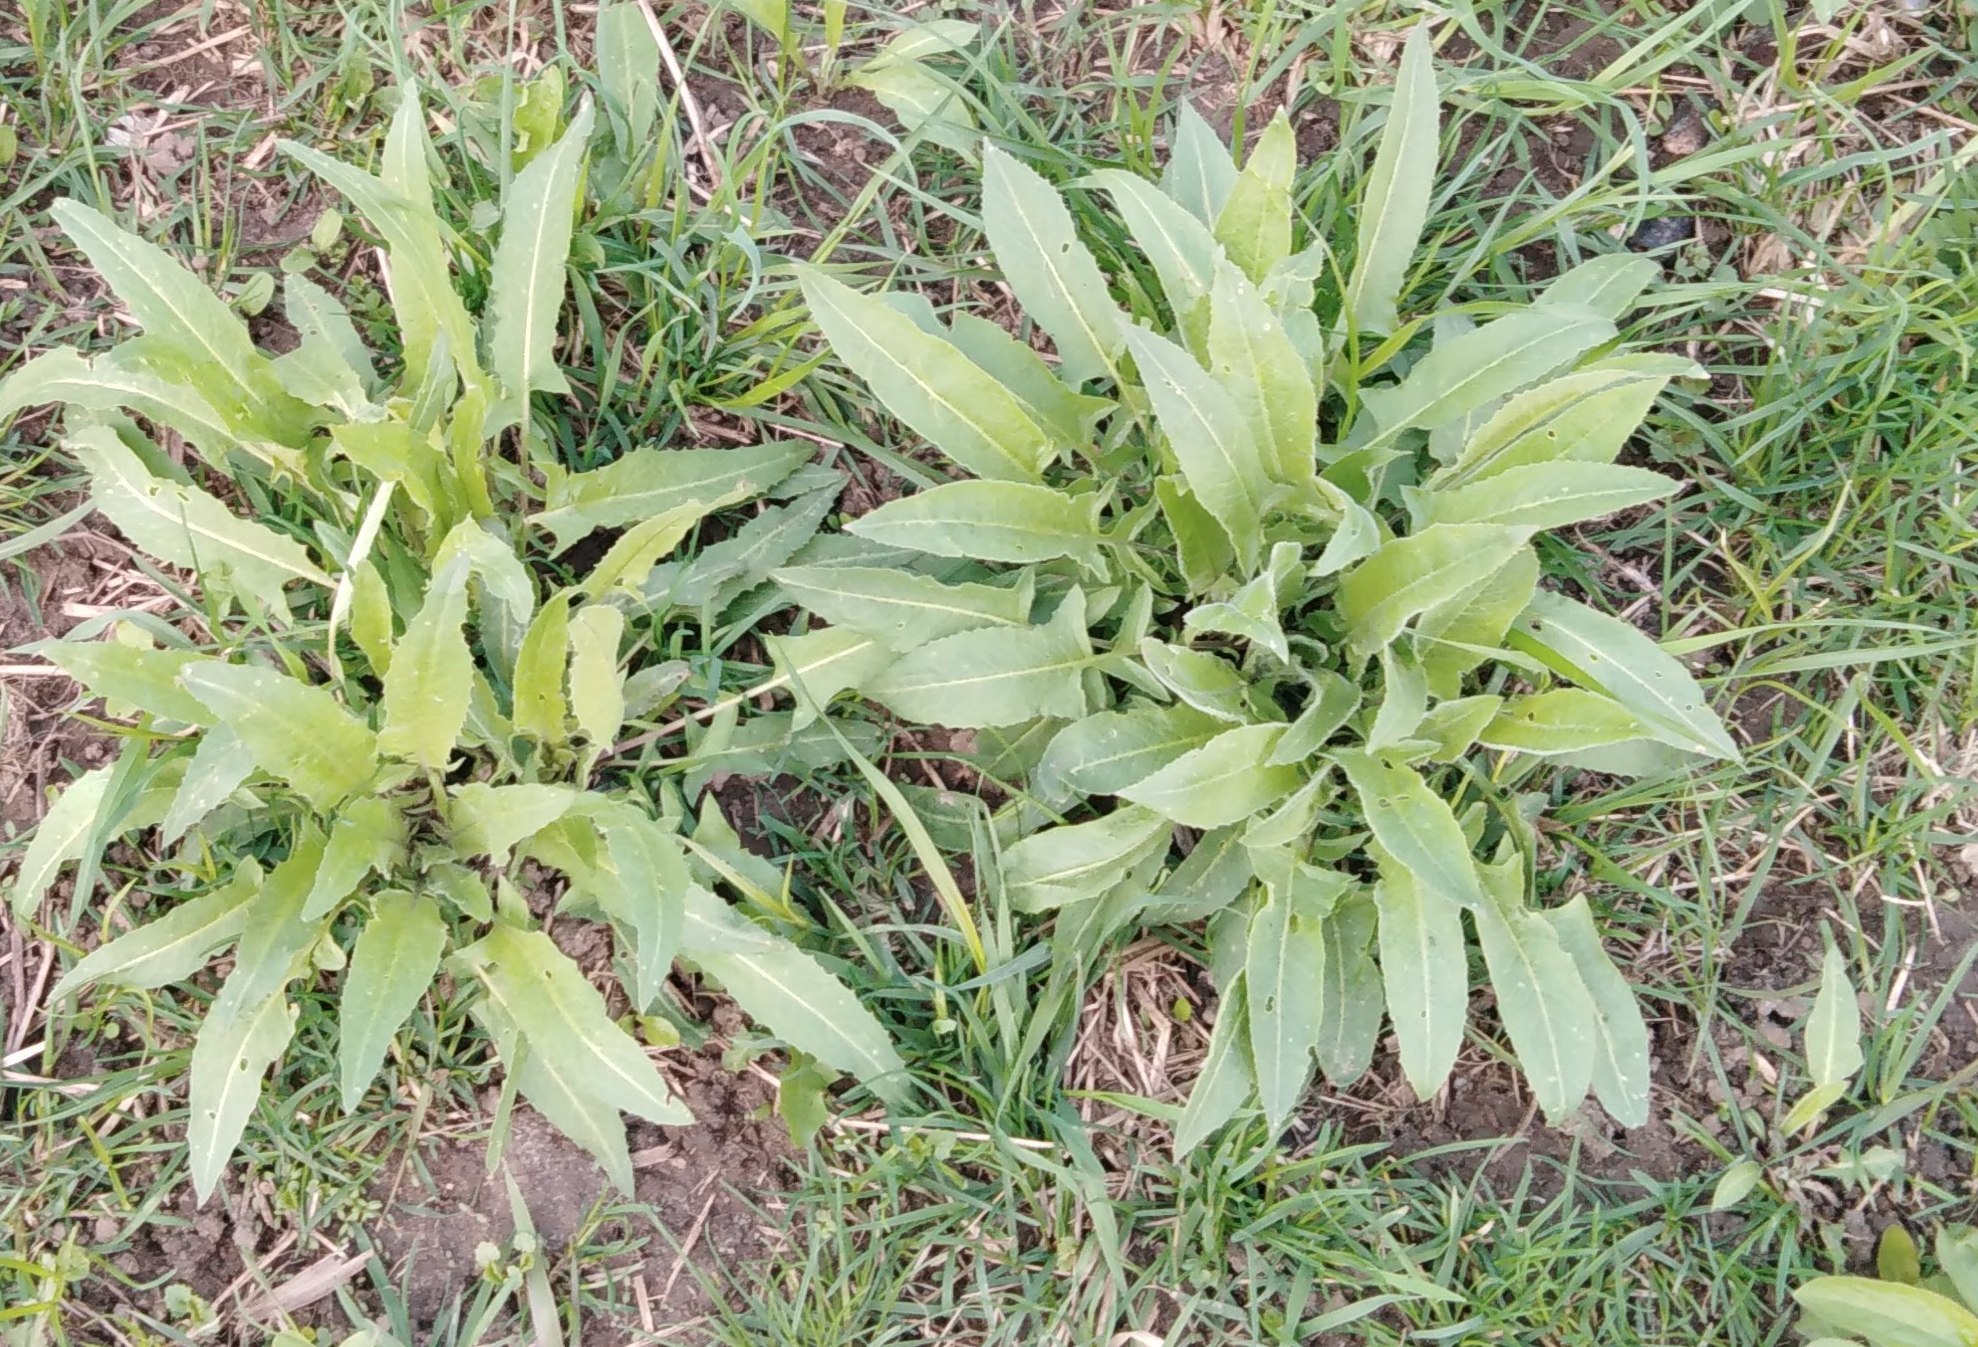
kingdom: Plantae
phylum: Tracheophyta
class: Magnoliopsida
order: Caryophyllales
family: Polygonaceae
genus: Rumex
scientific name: Rumex acetosa
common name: Garden sorrel
